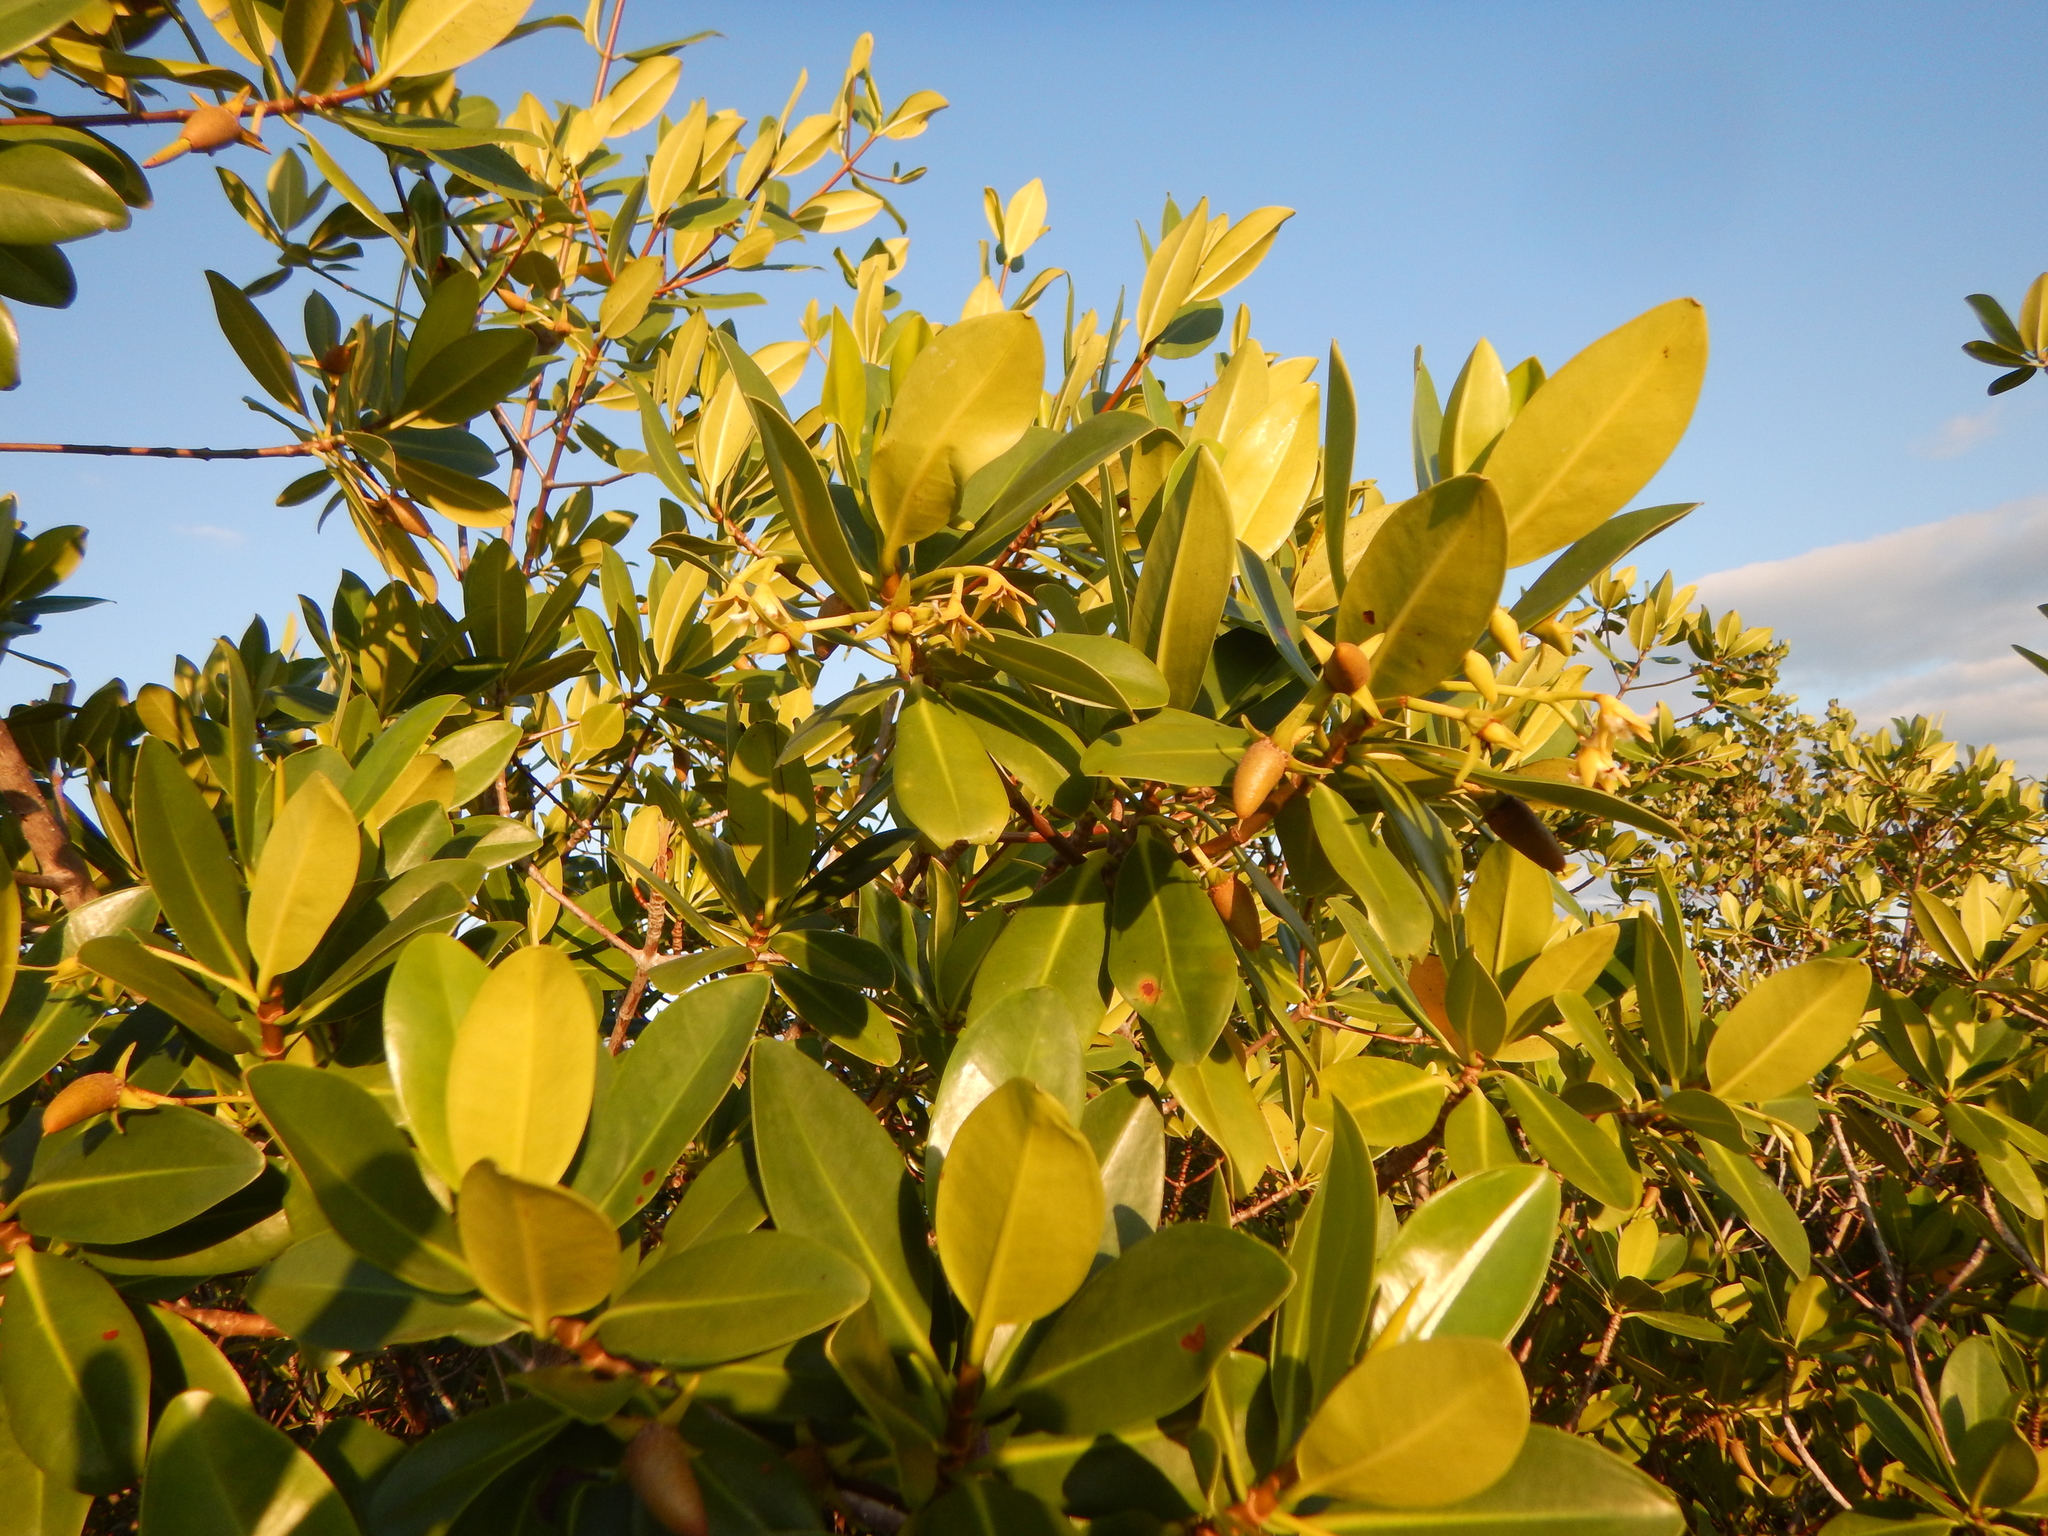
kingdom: Plantae
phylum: Tracheophyta
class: Magnoliopsida
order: Malpighiales
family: Rhizophoraceae
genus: Rhizophora
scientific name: Rhizophora mangle
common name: Red mangrove
